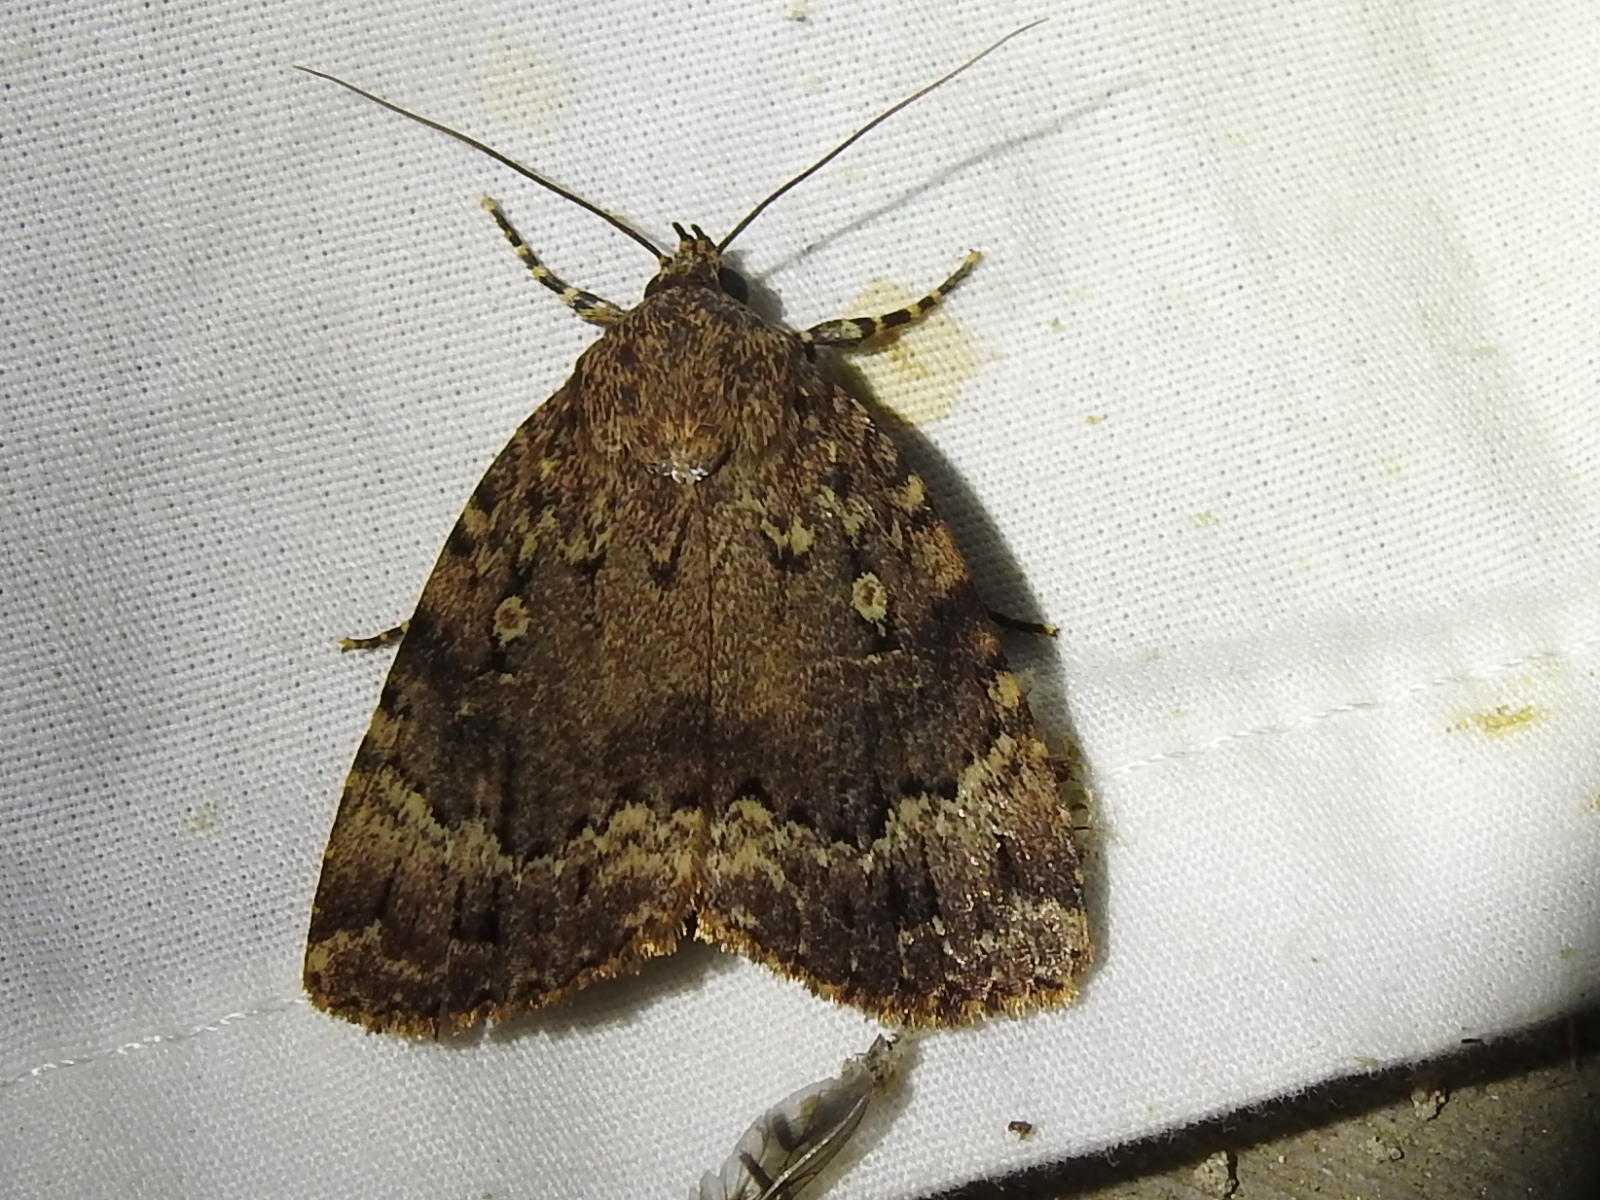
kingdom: Animalia
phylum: Arthropoda
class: Insecta
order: Lepidoptera
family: Noctuidae
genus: Amphipyra
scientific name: Amphipyra pyramidoides
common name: American copper underwing
